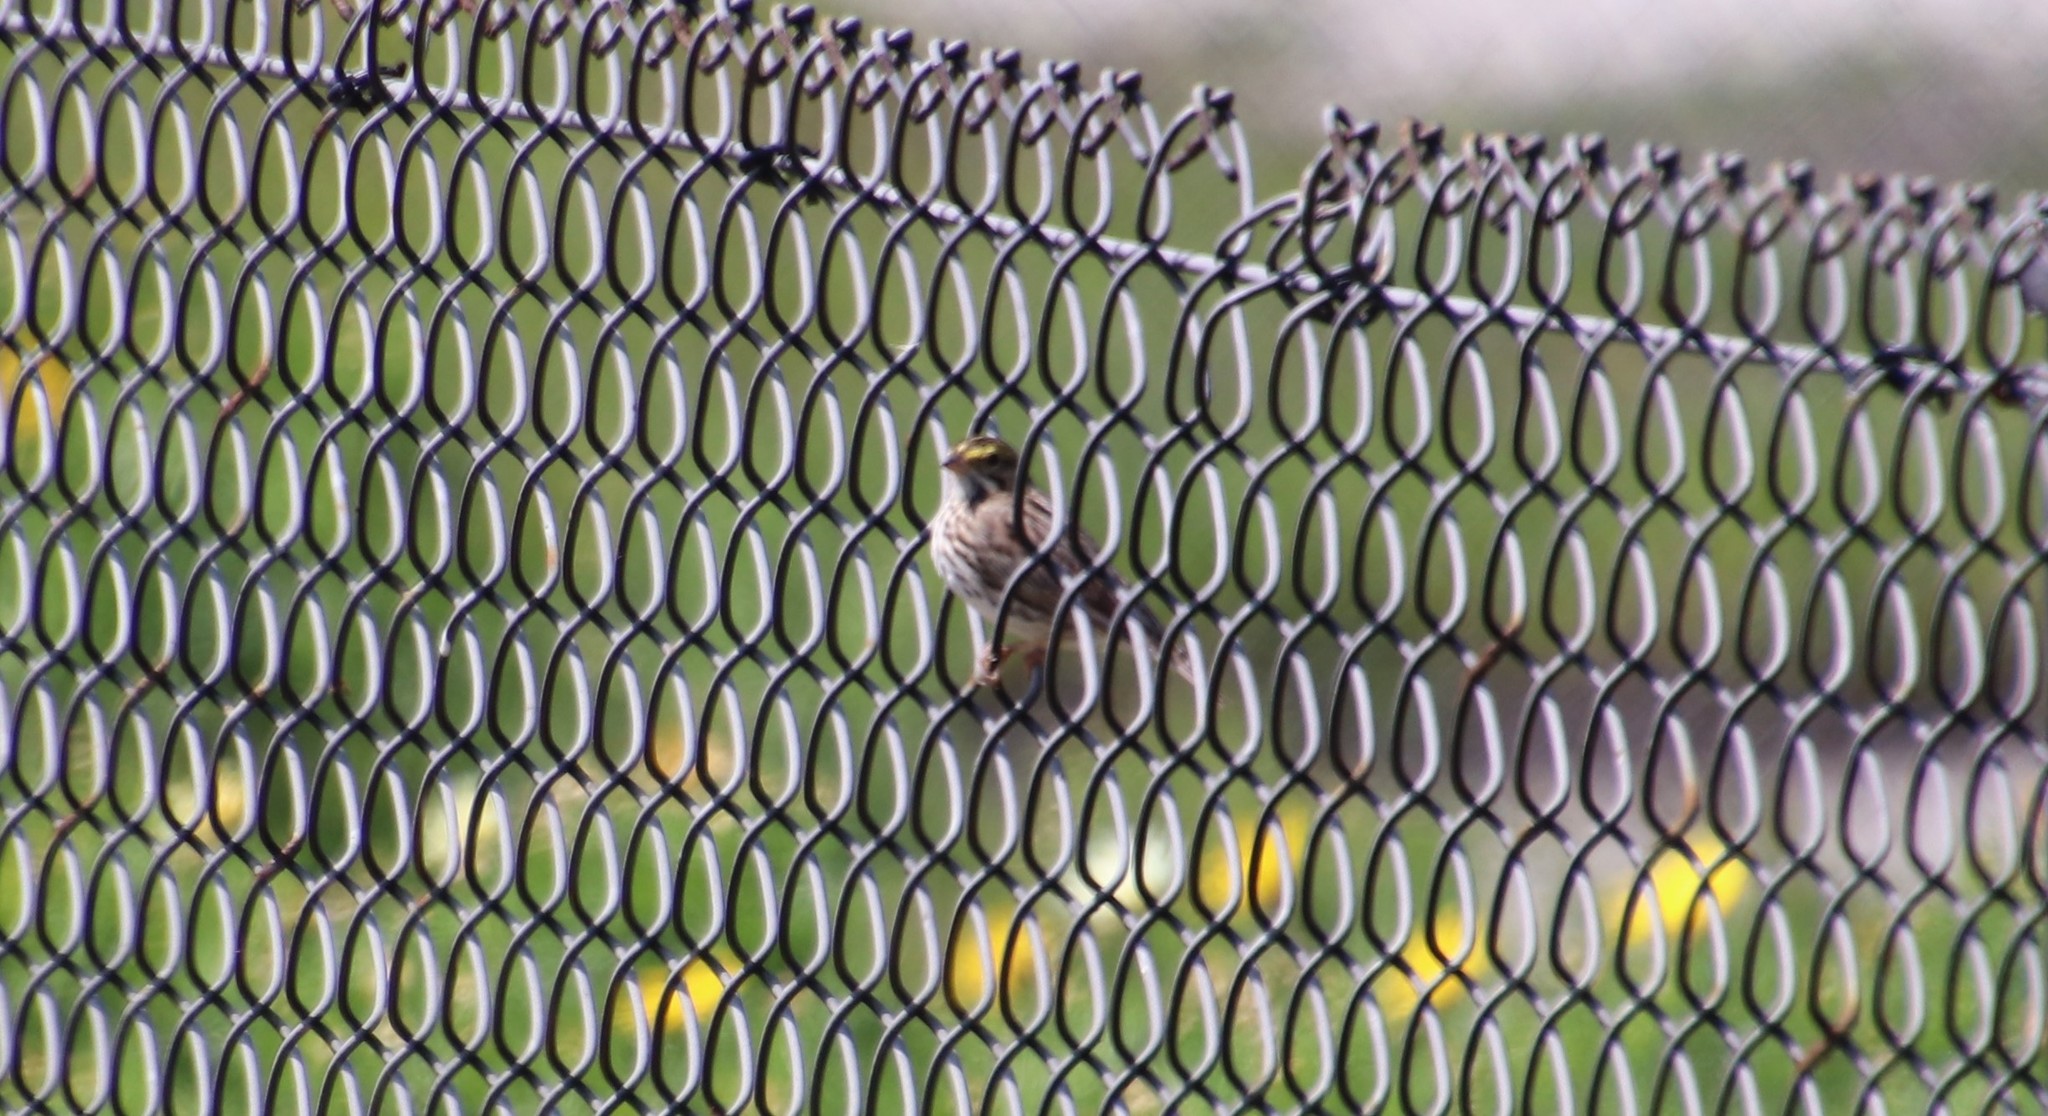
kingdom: Animalia
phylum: Chordata
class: Aves
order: Passeriformes
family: Passerellidae
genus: Passerculus
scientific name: Passerculus sandwichensis
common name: Savannah sparrow
